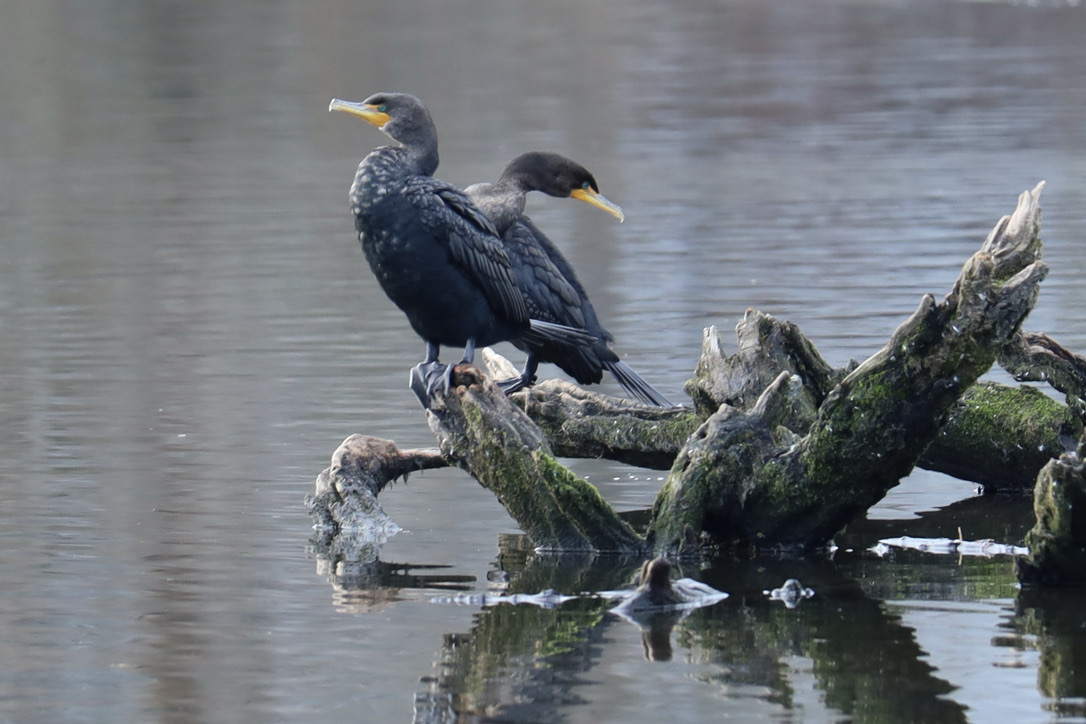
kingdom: Animalia
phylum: Chordata
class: Aves
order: Suliformes
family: Phalacrocoracidae
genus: Phalacrocorax
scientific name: Phalacrocorax auritus
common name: Double-crested cormorant
